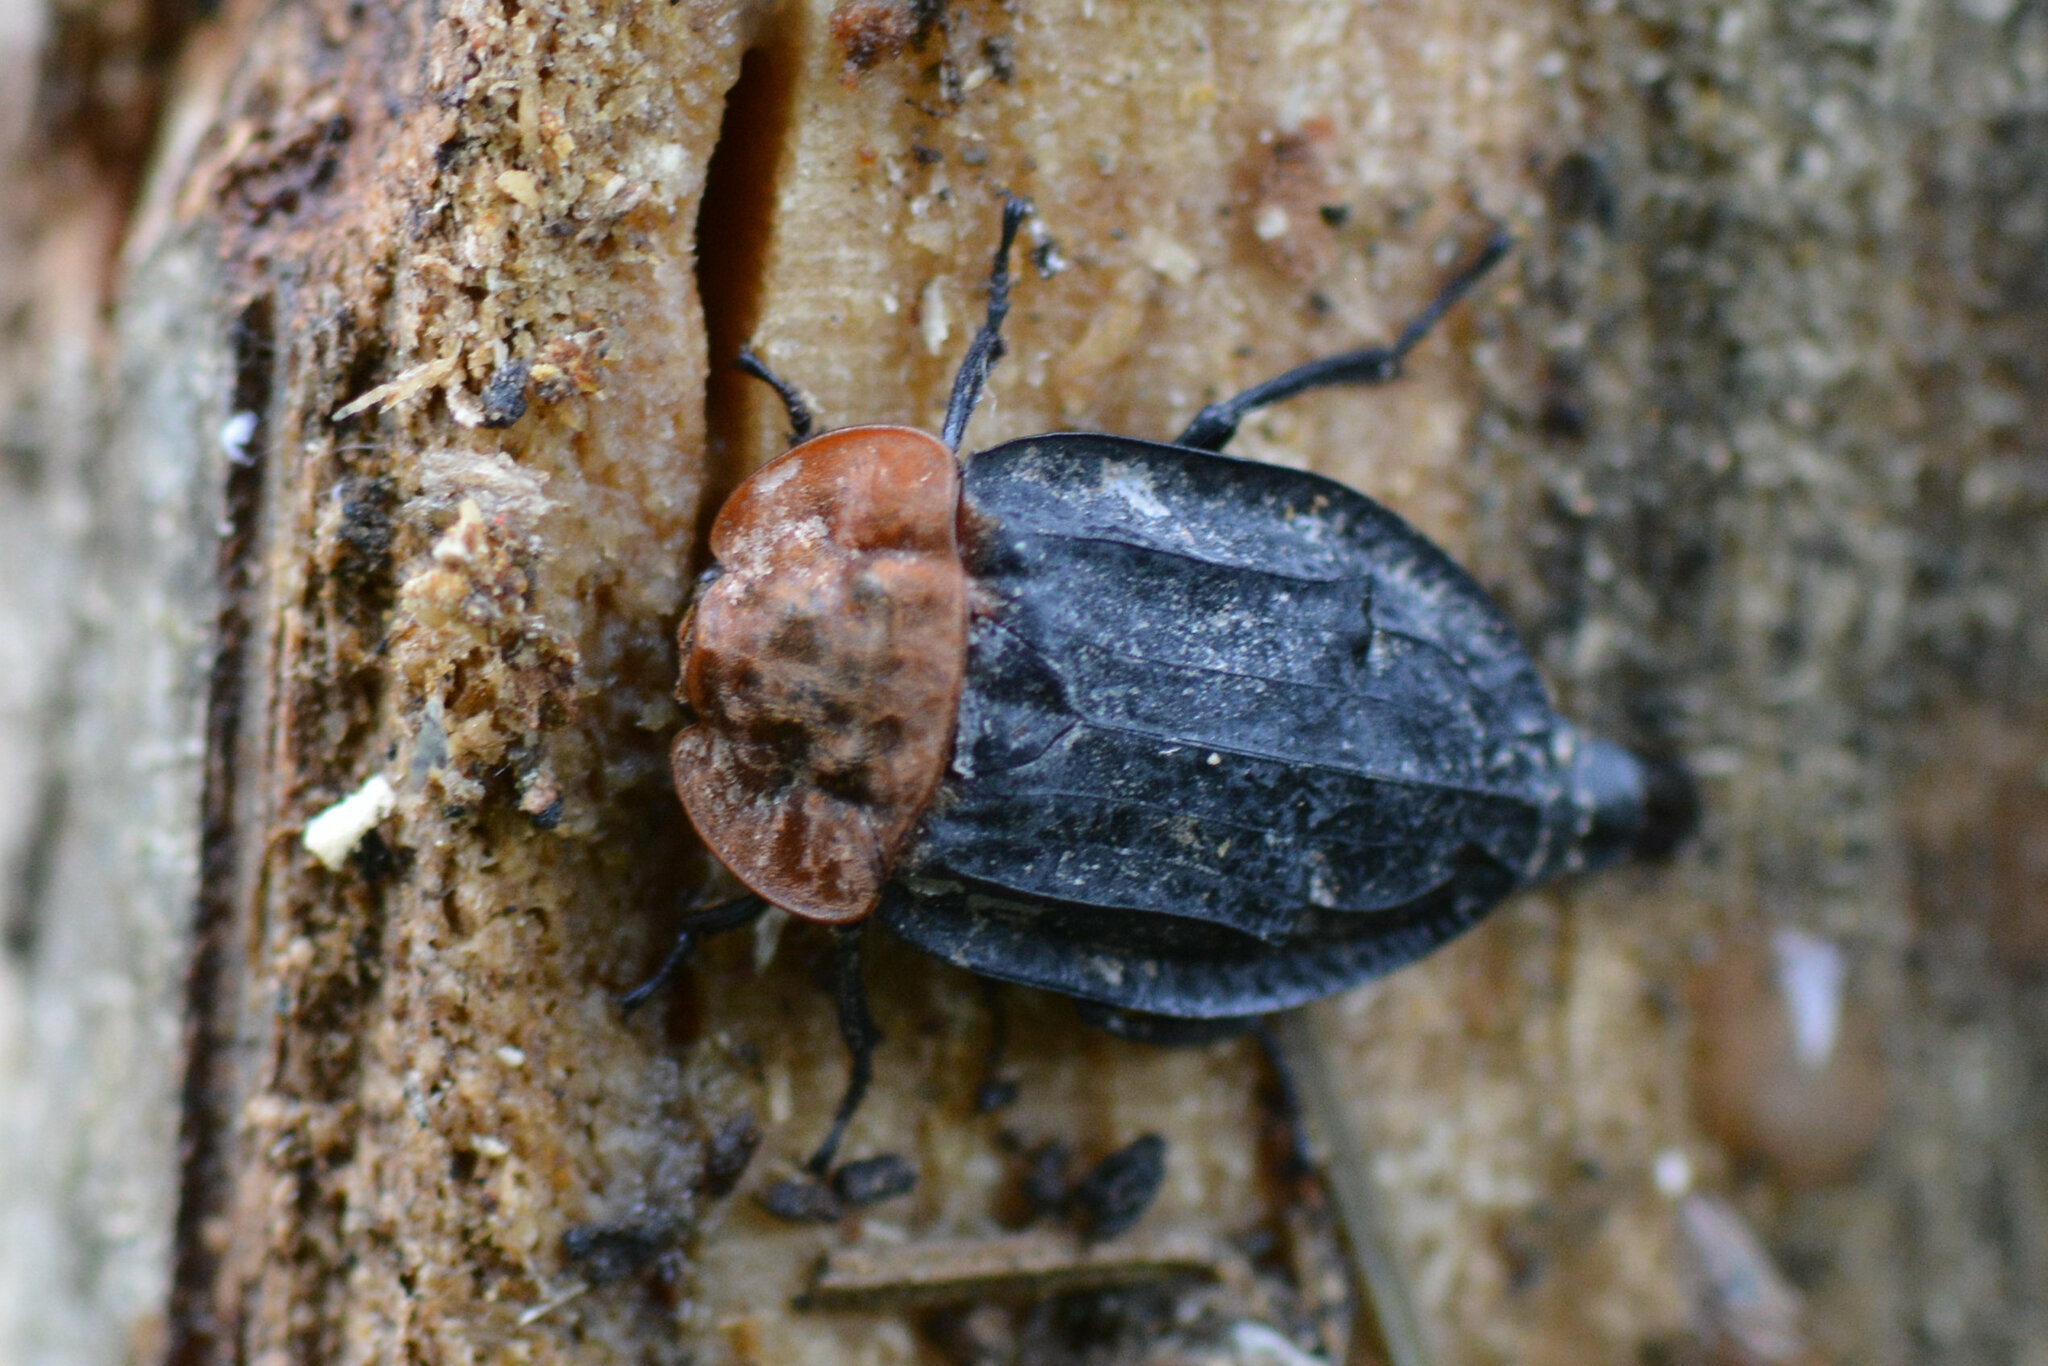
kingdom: Animalia
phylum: Arthropoda
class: Insecta
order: Coleoptera
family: Staphylinidae
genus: Oiceoptoma
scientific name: Oiceoptoma thoracicum
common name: Red-breasted carrion beetle
